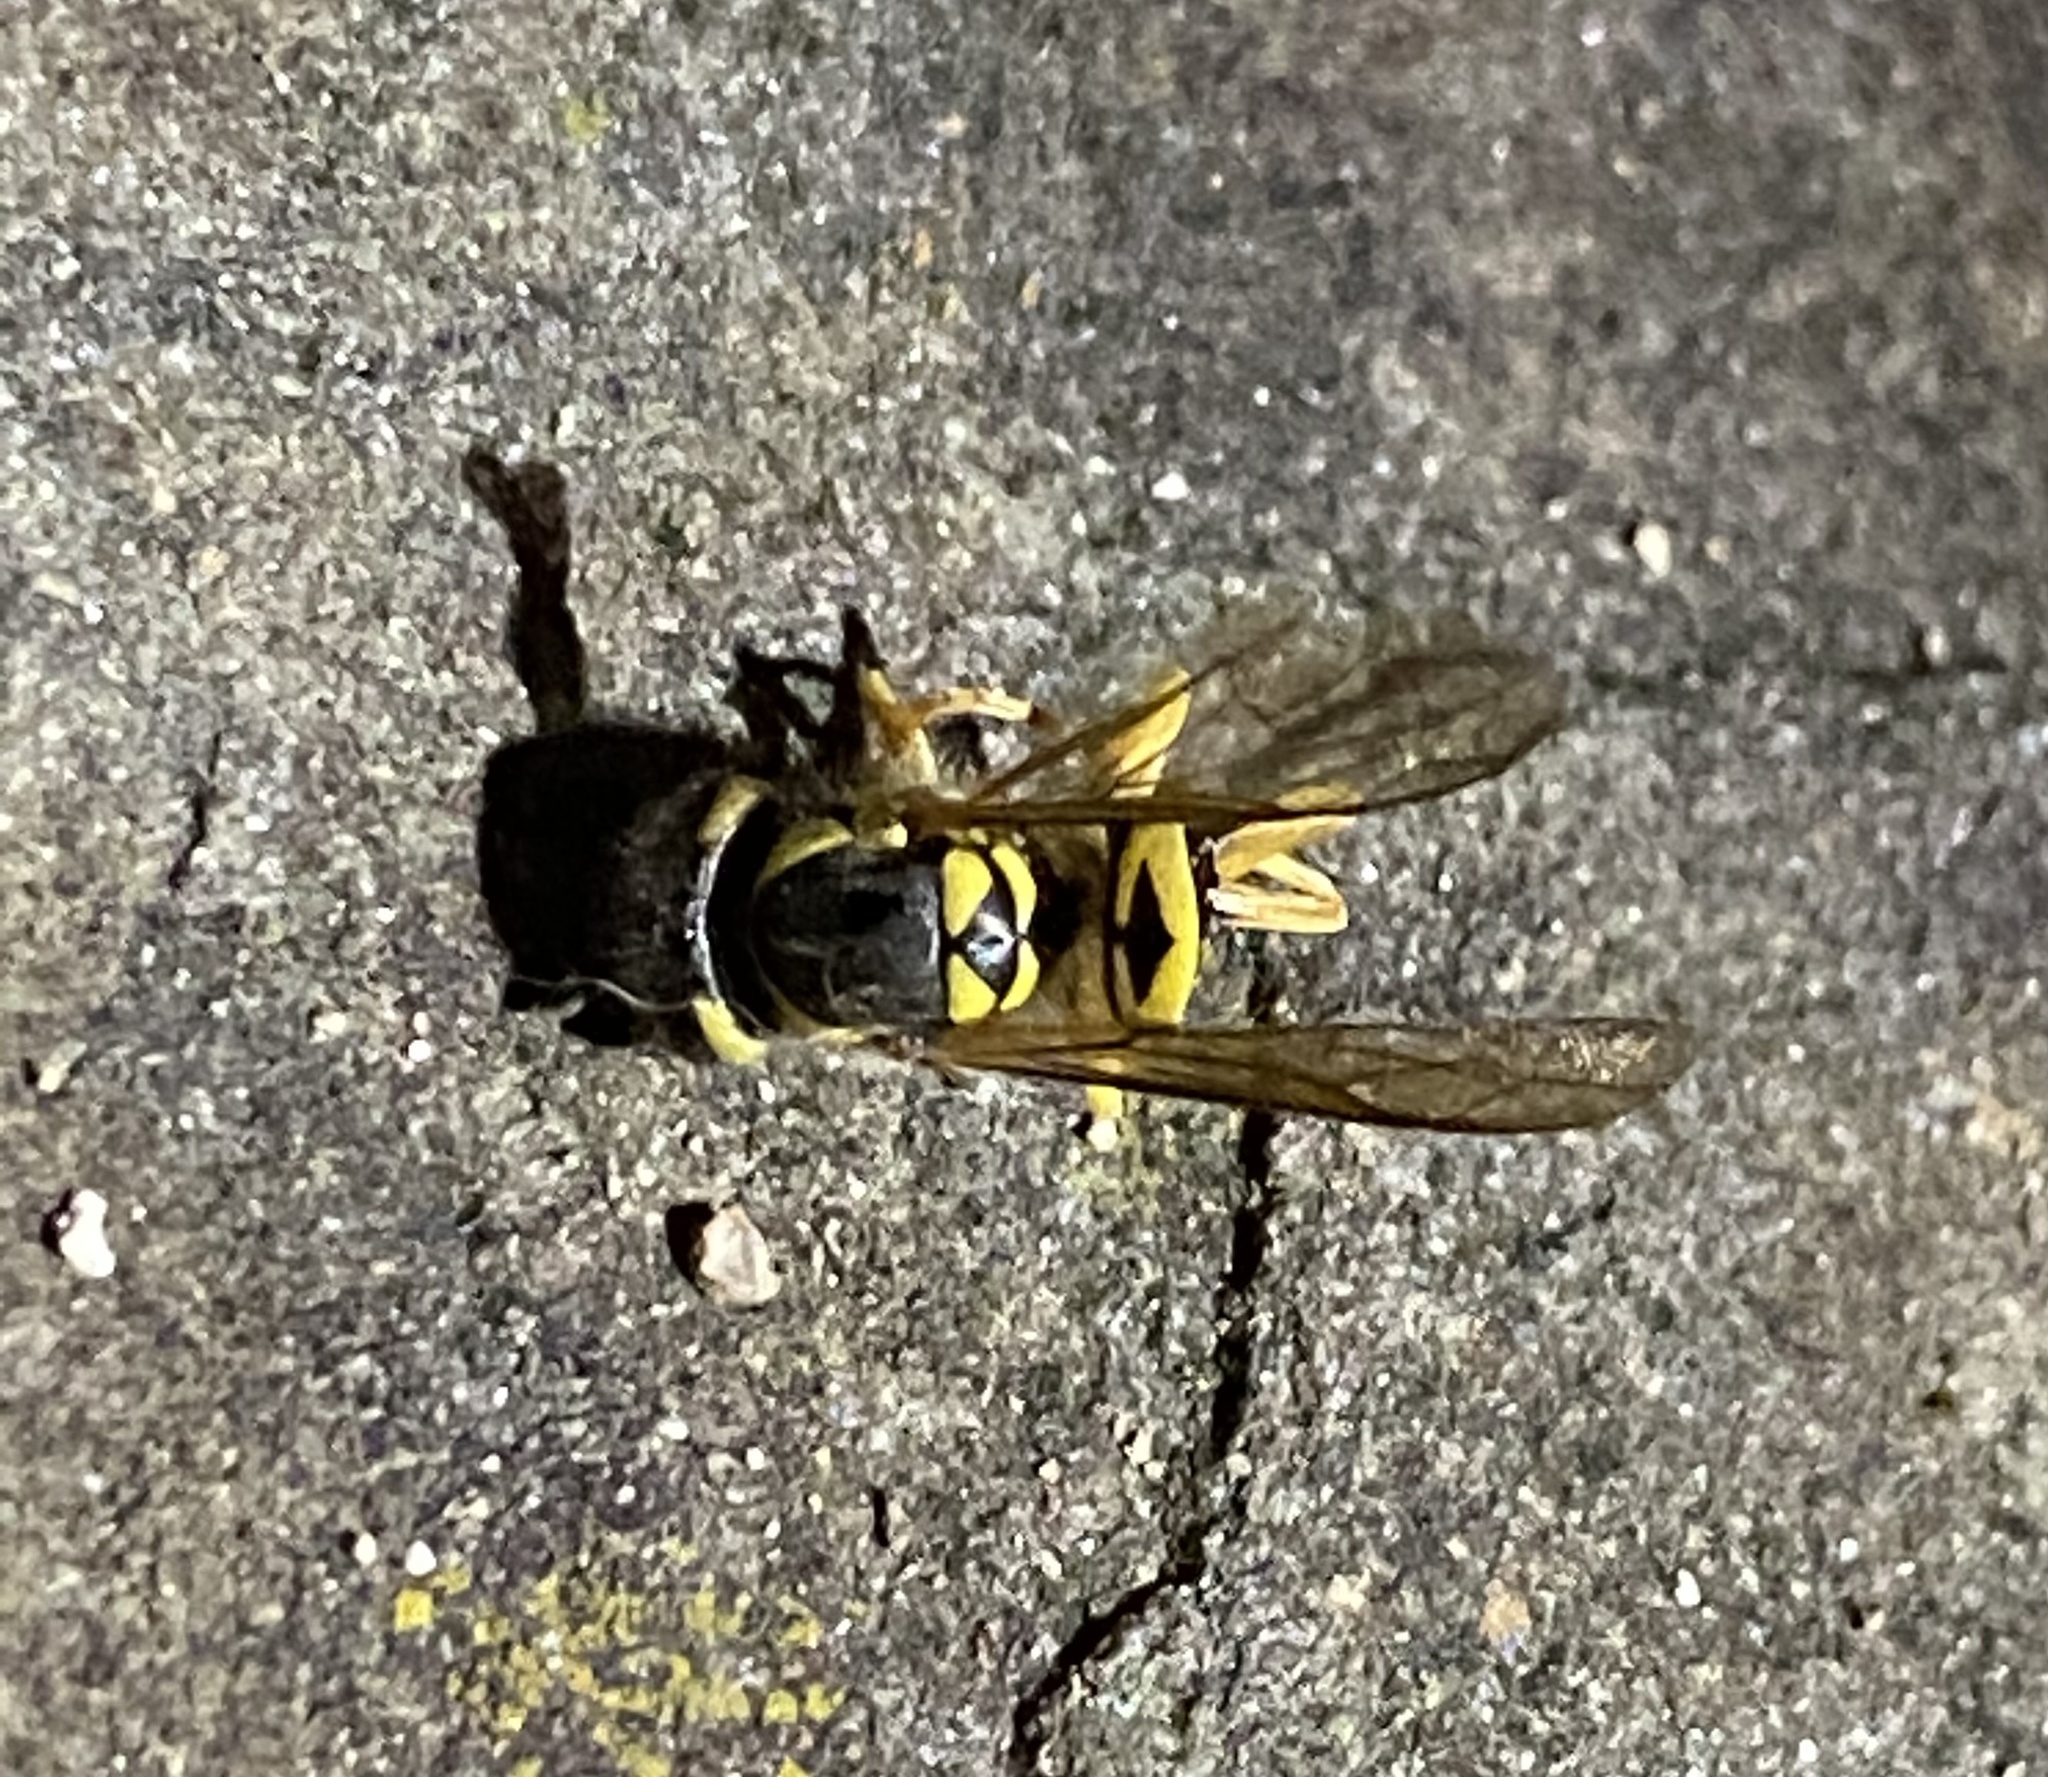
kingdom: Animalia
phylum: Arthropoda
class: Insecta
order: Hymenoptera
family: Vespidae
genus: Vespula
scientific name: Vespula maculifrons
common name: Eastern yellowjacket
